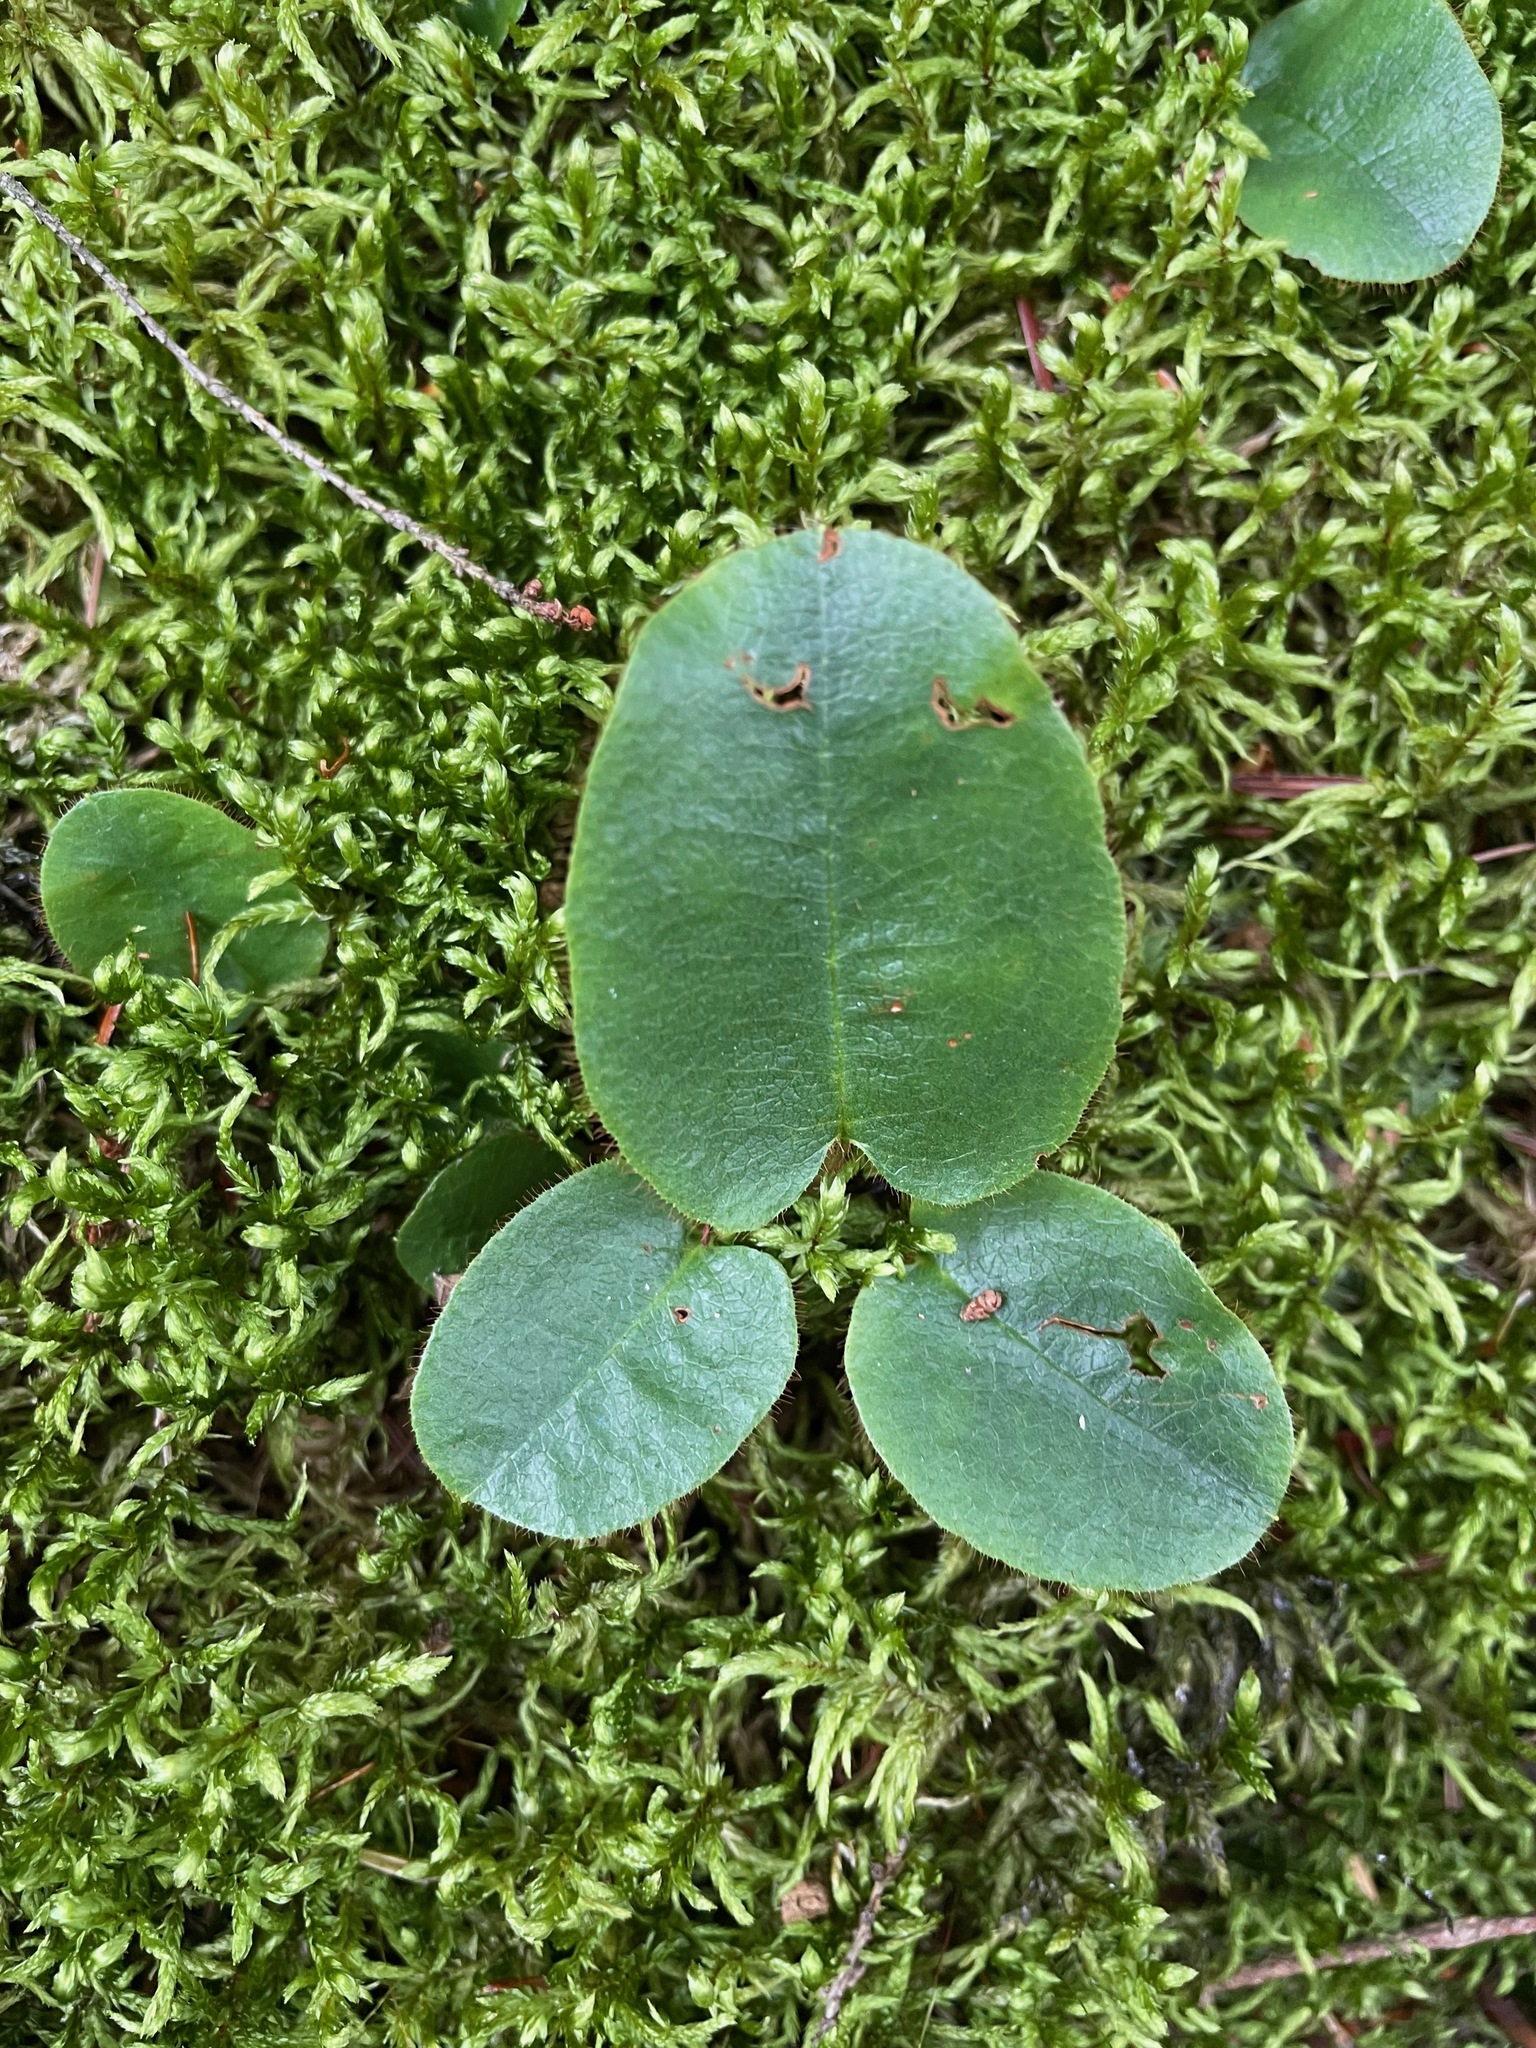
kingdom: Plantae
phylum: Tracheophyta
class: Magnoliopsida
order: Ericales
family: Ericaceae
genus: Epigaea
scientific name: Epigaea repens
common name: Gravelroot
